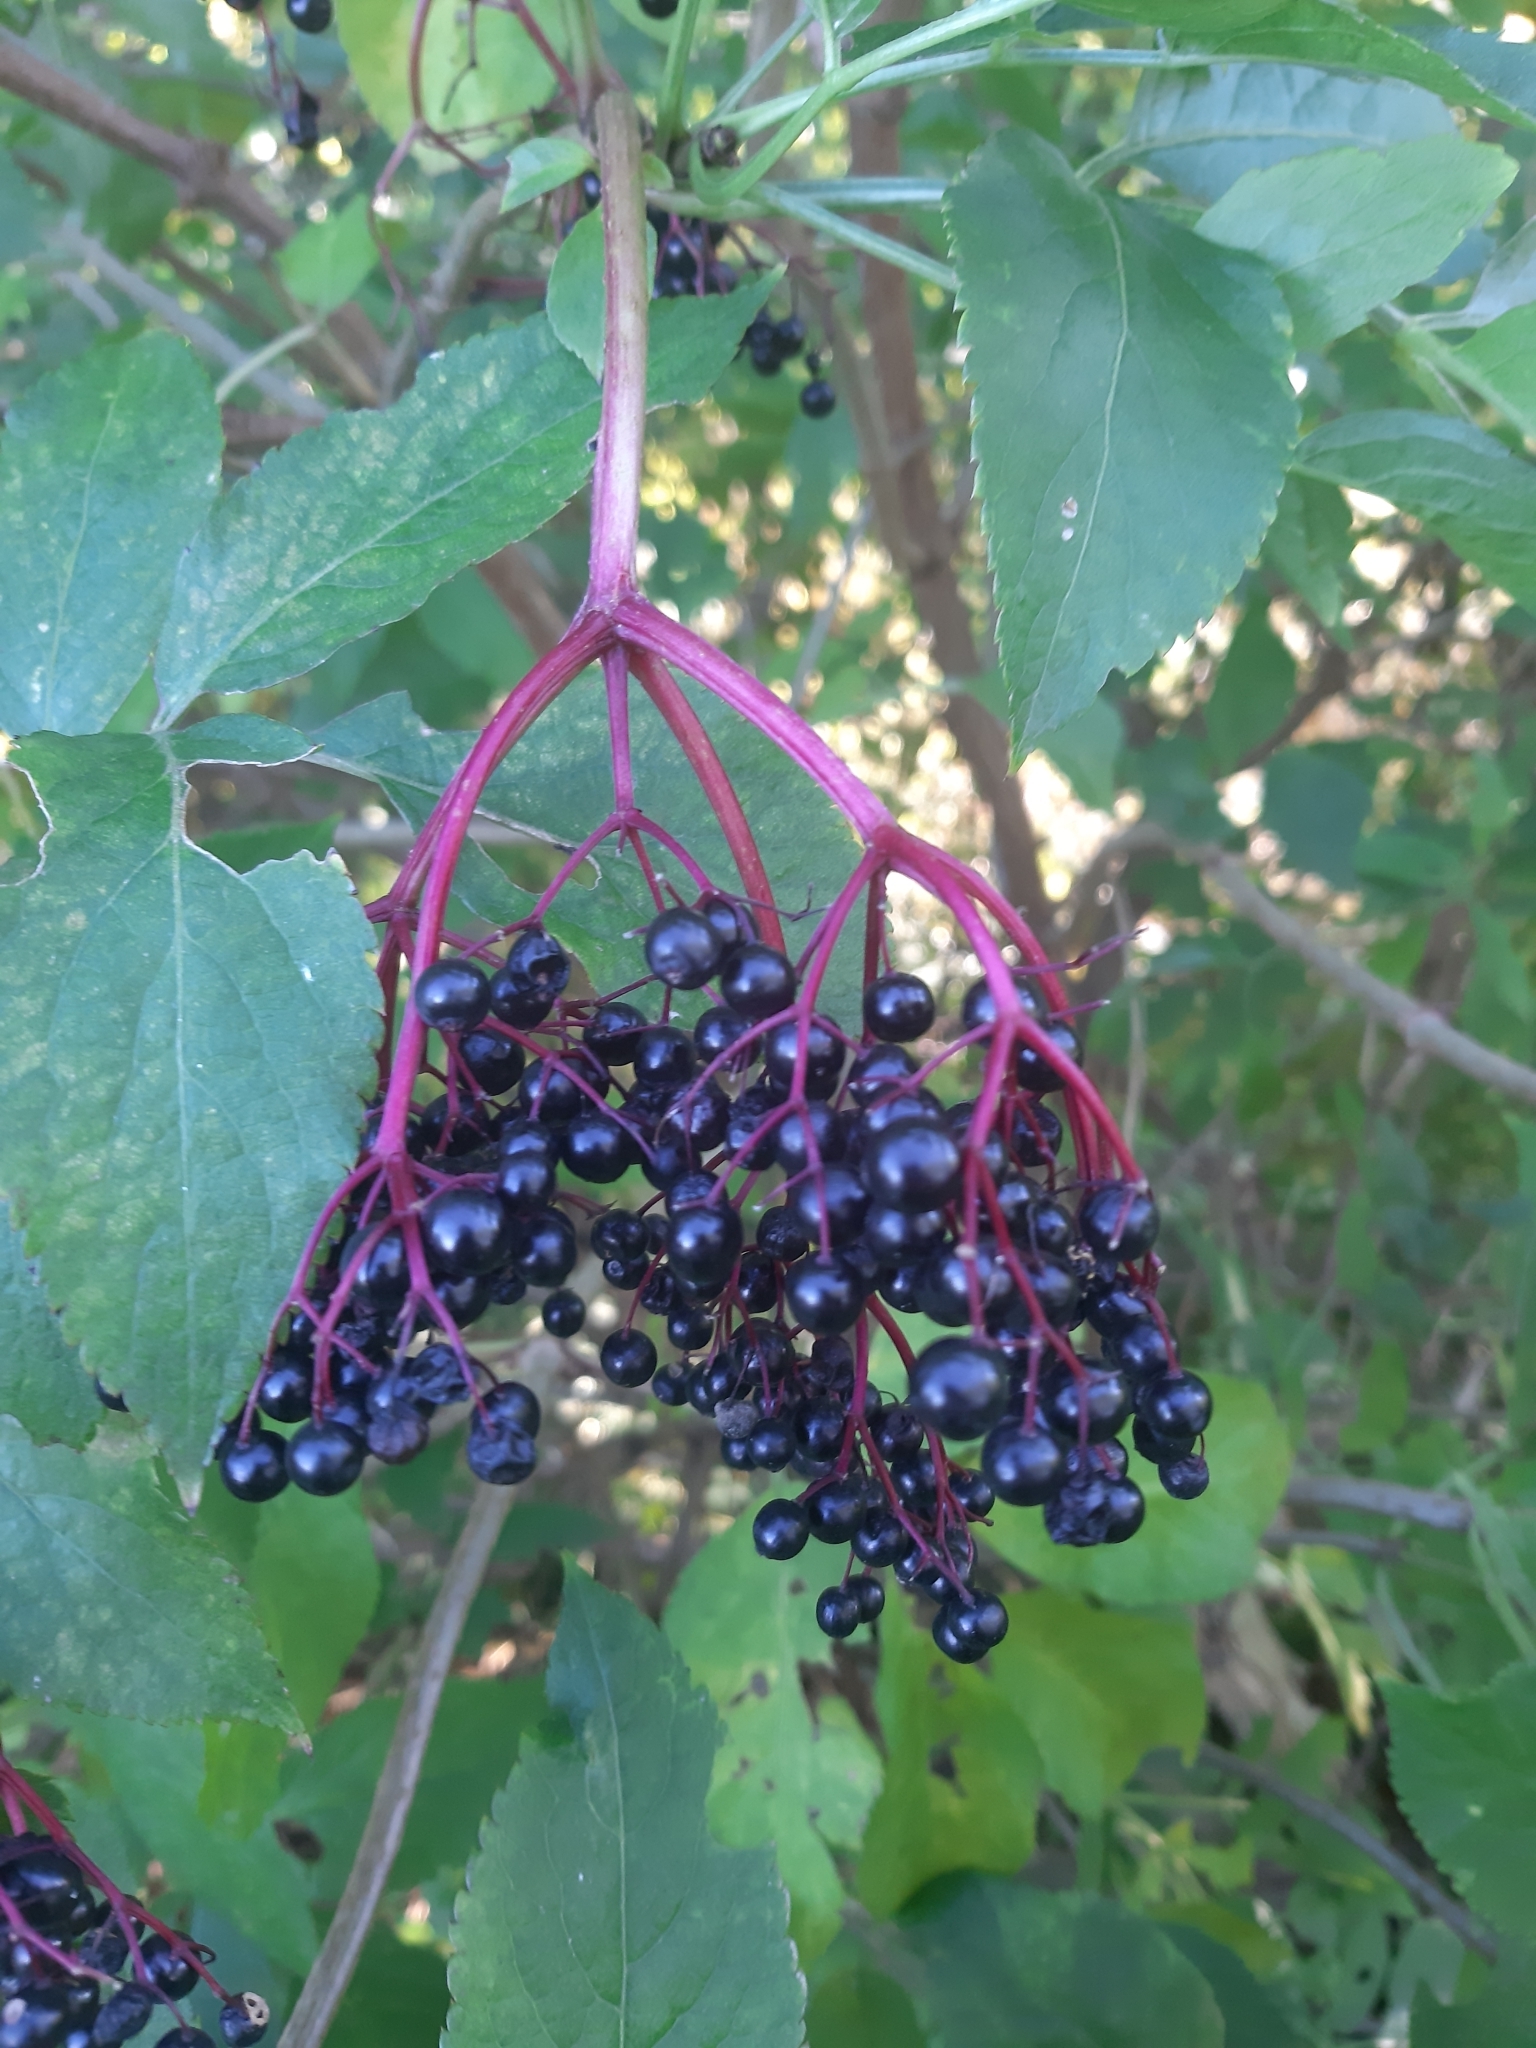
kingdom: Plantae
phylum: Tracheophyta
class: Magnoliopsida
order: Dipsacales
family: Viburnaceae
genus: Sambucus
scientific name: Sambucus nigra
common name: Elder
